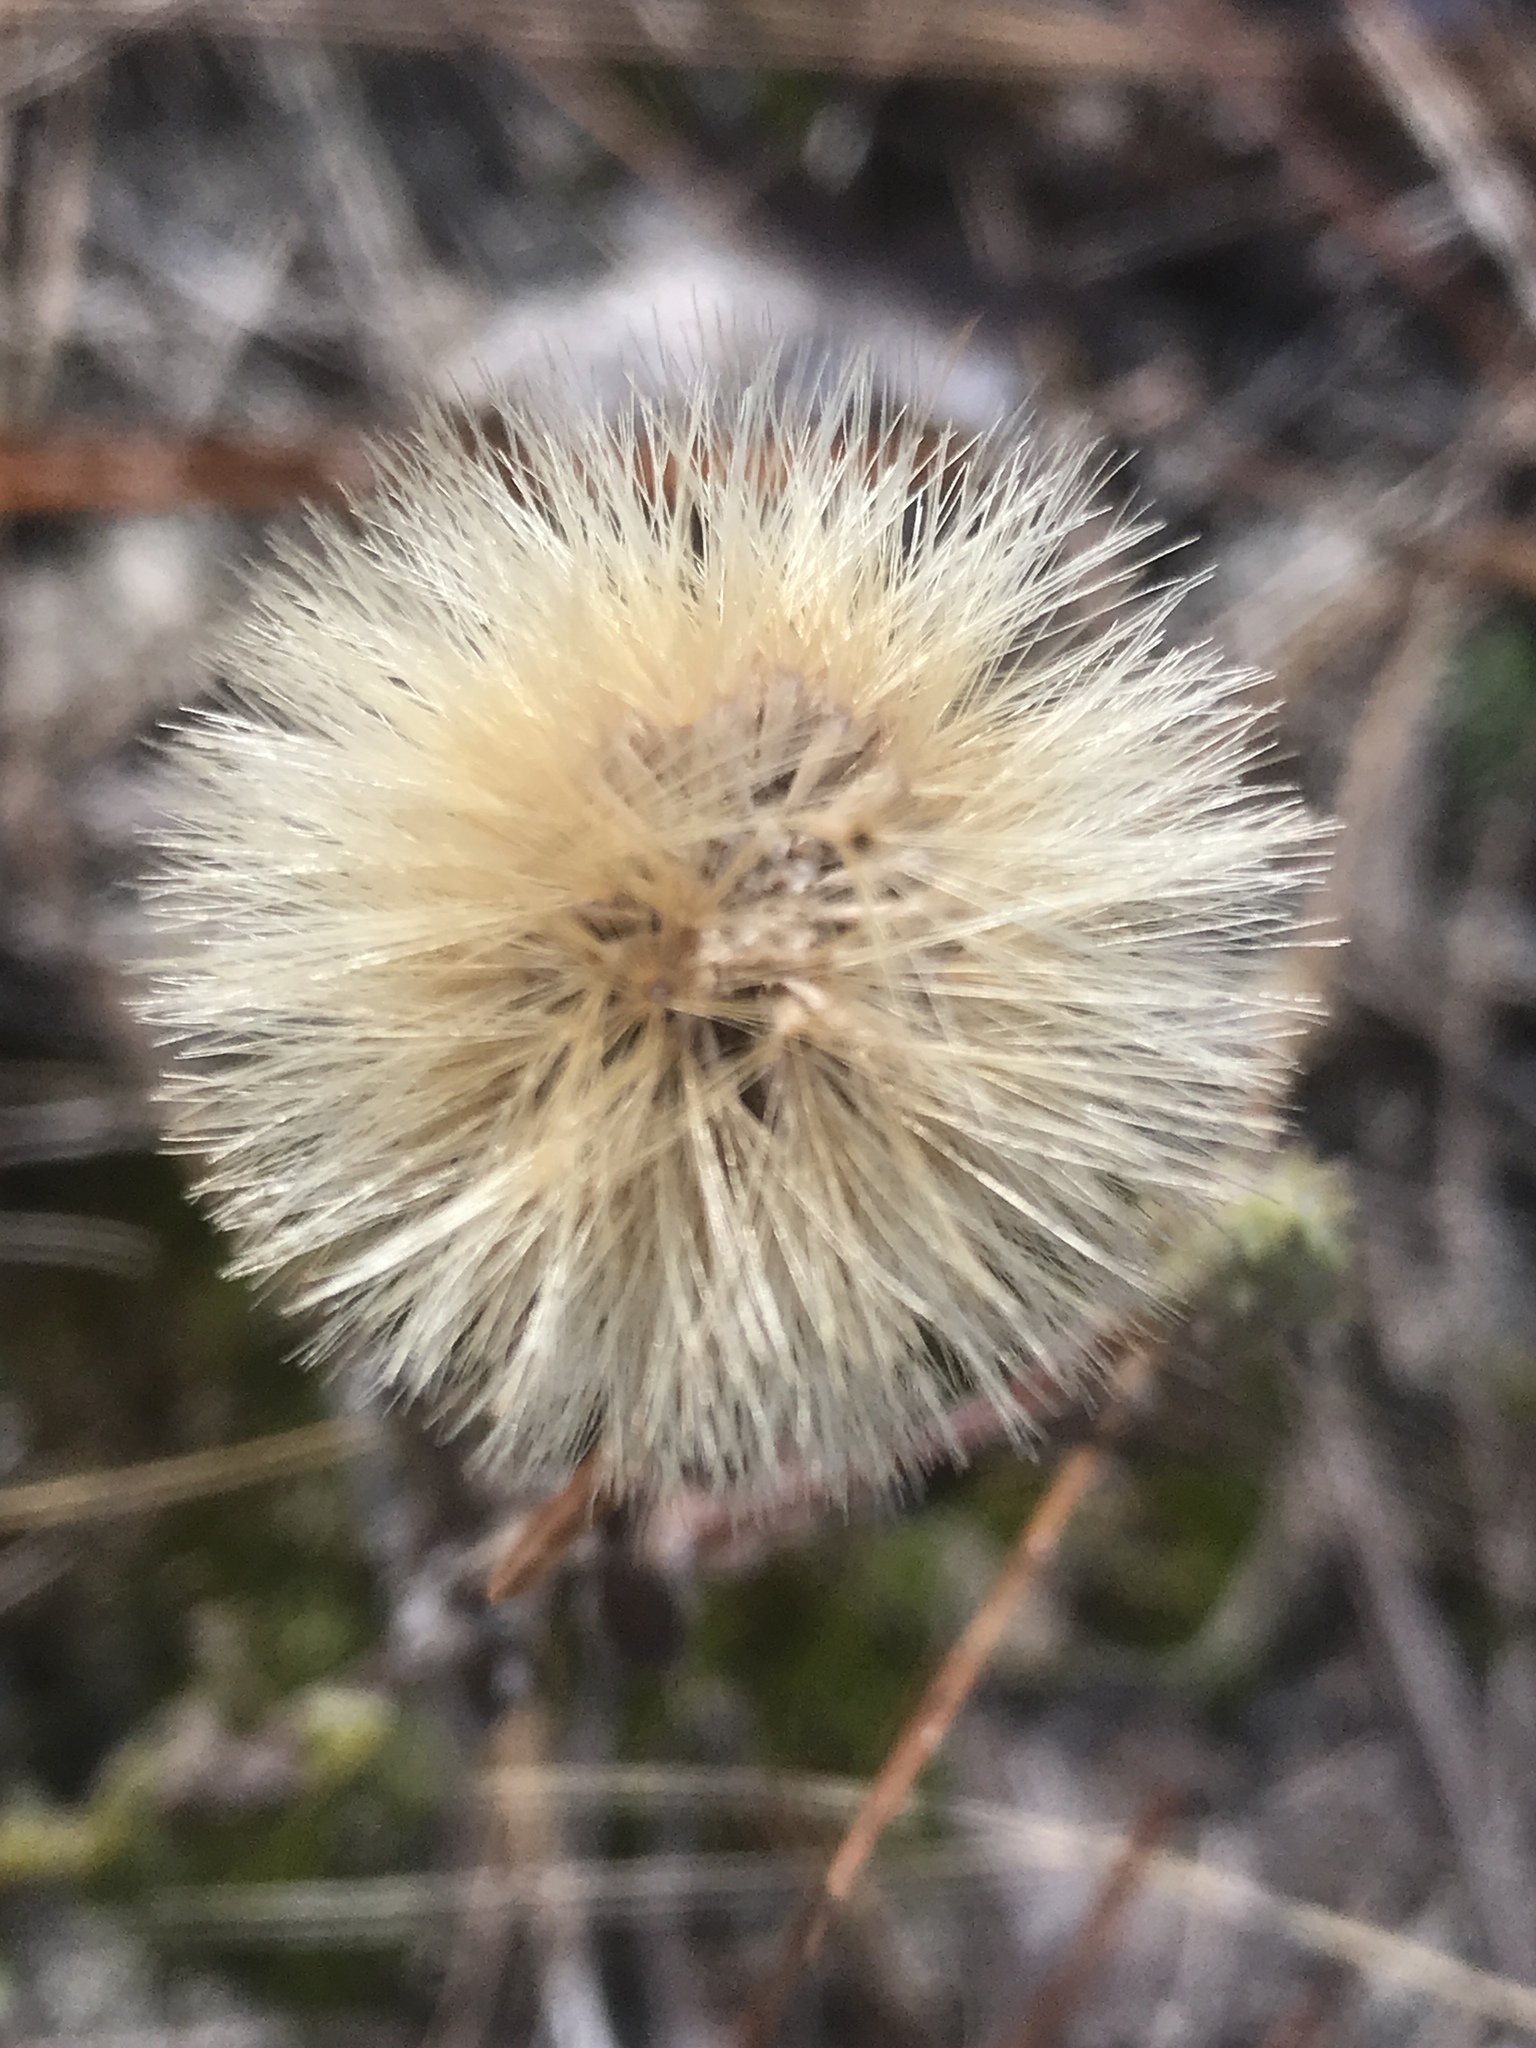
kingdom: Plantae
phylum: Tracheophyta
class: Magnoliopsida
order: Asterales
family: Asteraceae
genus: Chrysopsis
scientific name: Chrysopsis gossypina
